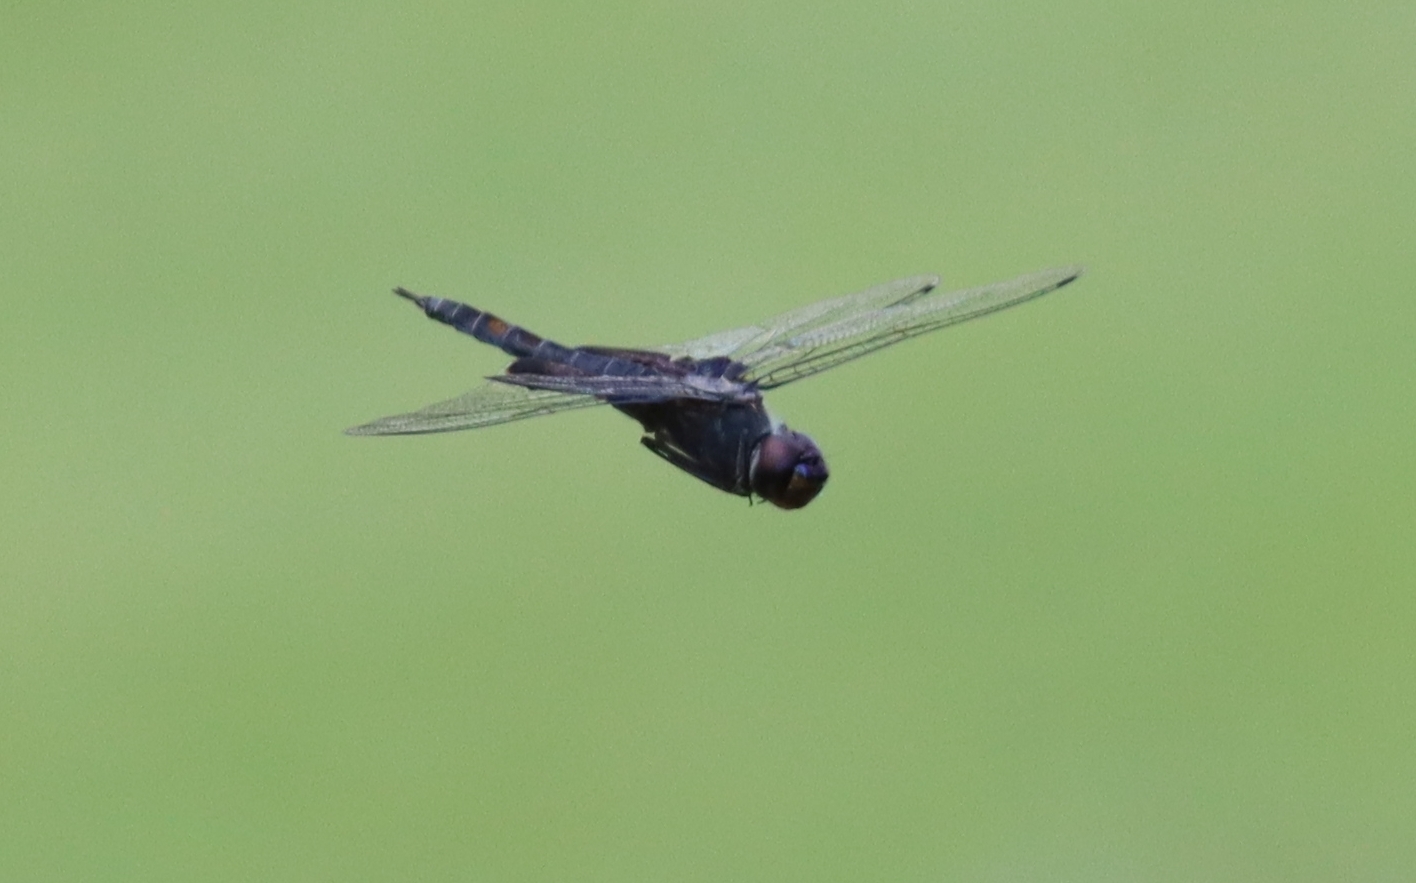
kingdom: Animalia
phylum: Arthropoda
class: Insecta
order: Odonata
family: Libellulidae
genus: Tramea
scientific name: Tramea lacerata
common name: Black saddlebags
